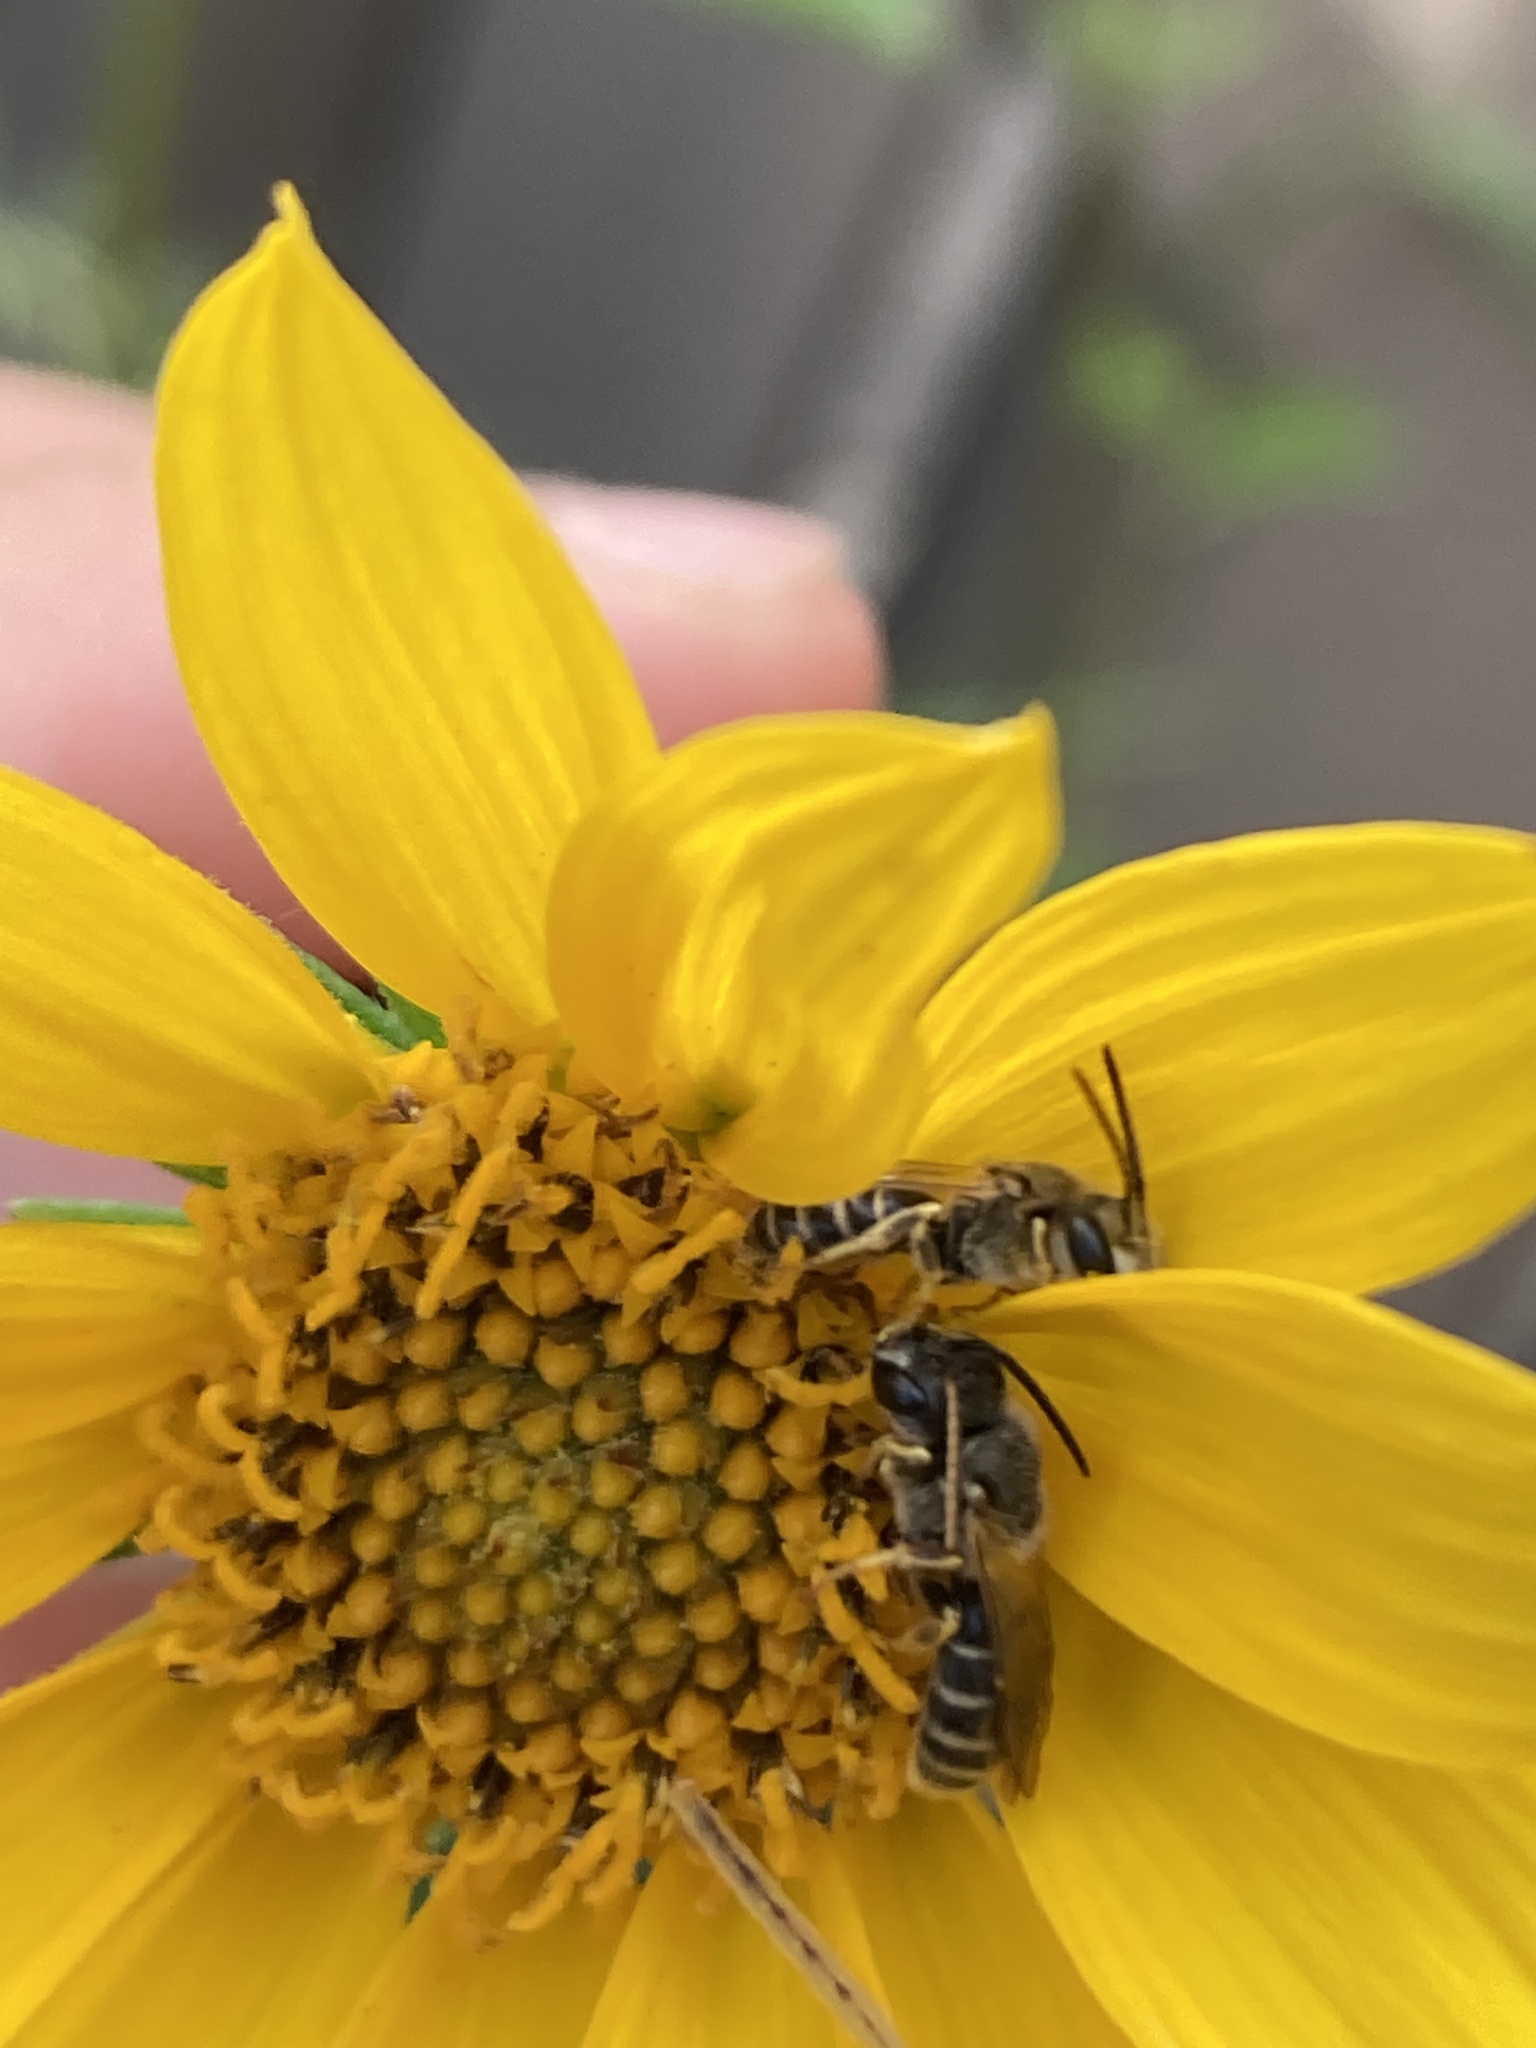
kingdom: Animalia
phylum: Arthropoda
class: Insecta
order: Hymenoptera
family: Halictidae
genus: Halictus
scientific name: Halictus ligatus
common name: Ligated furrow bee
